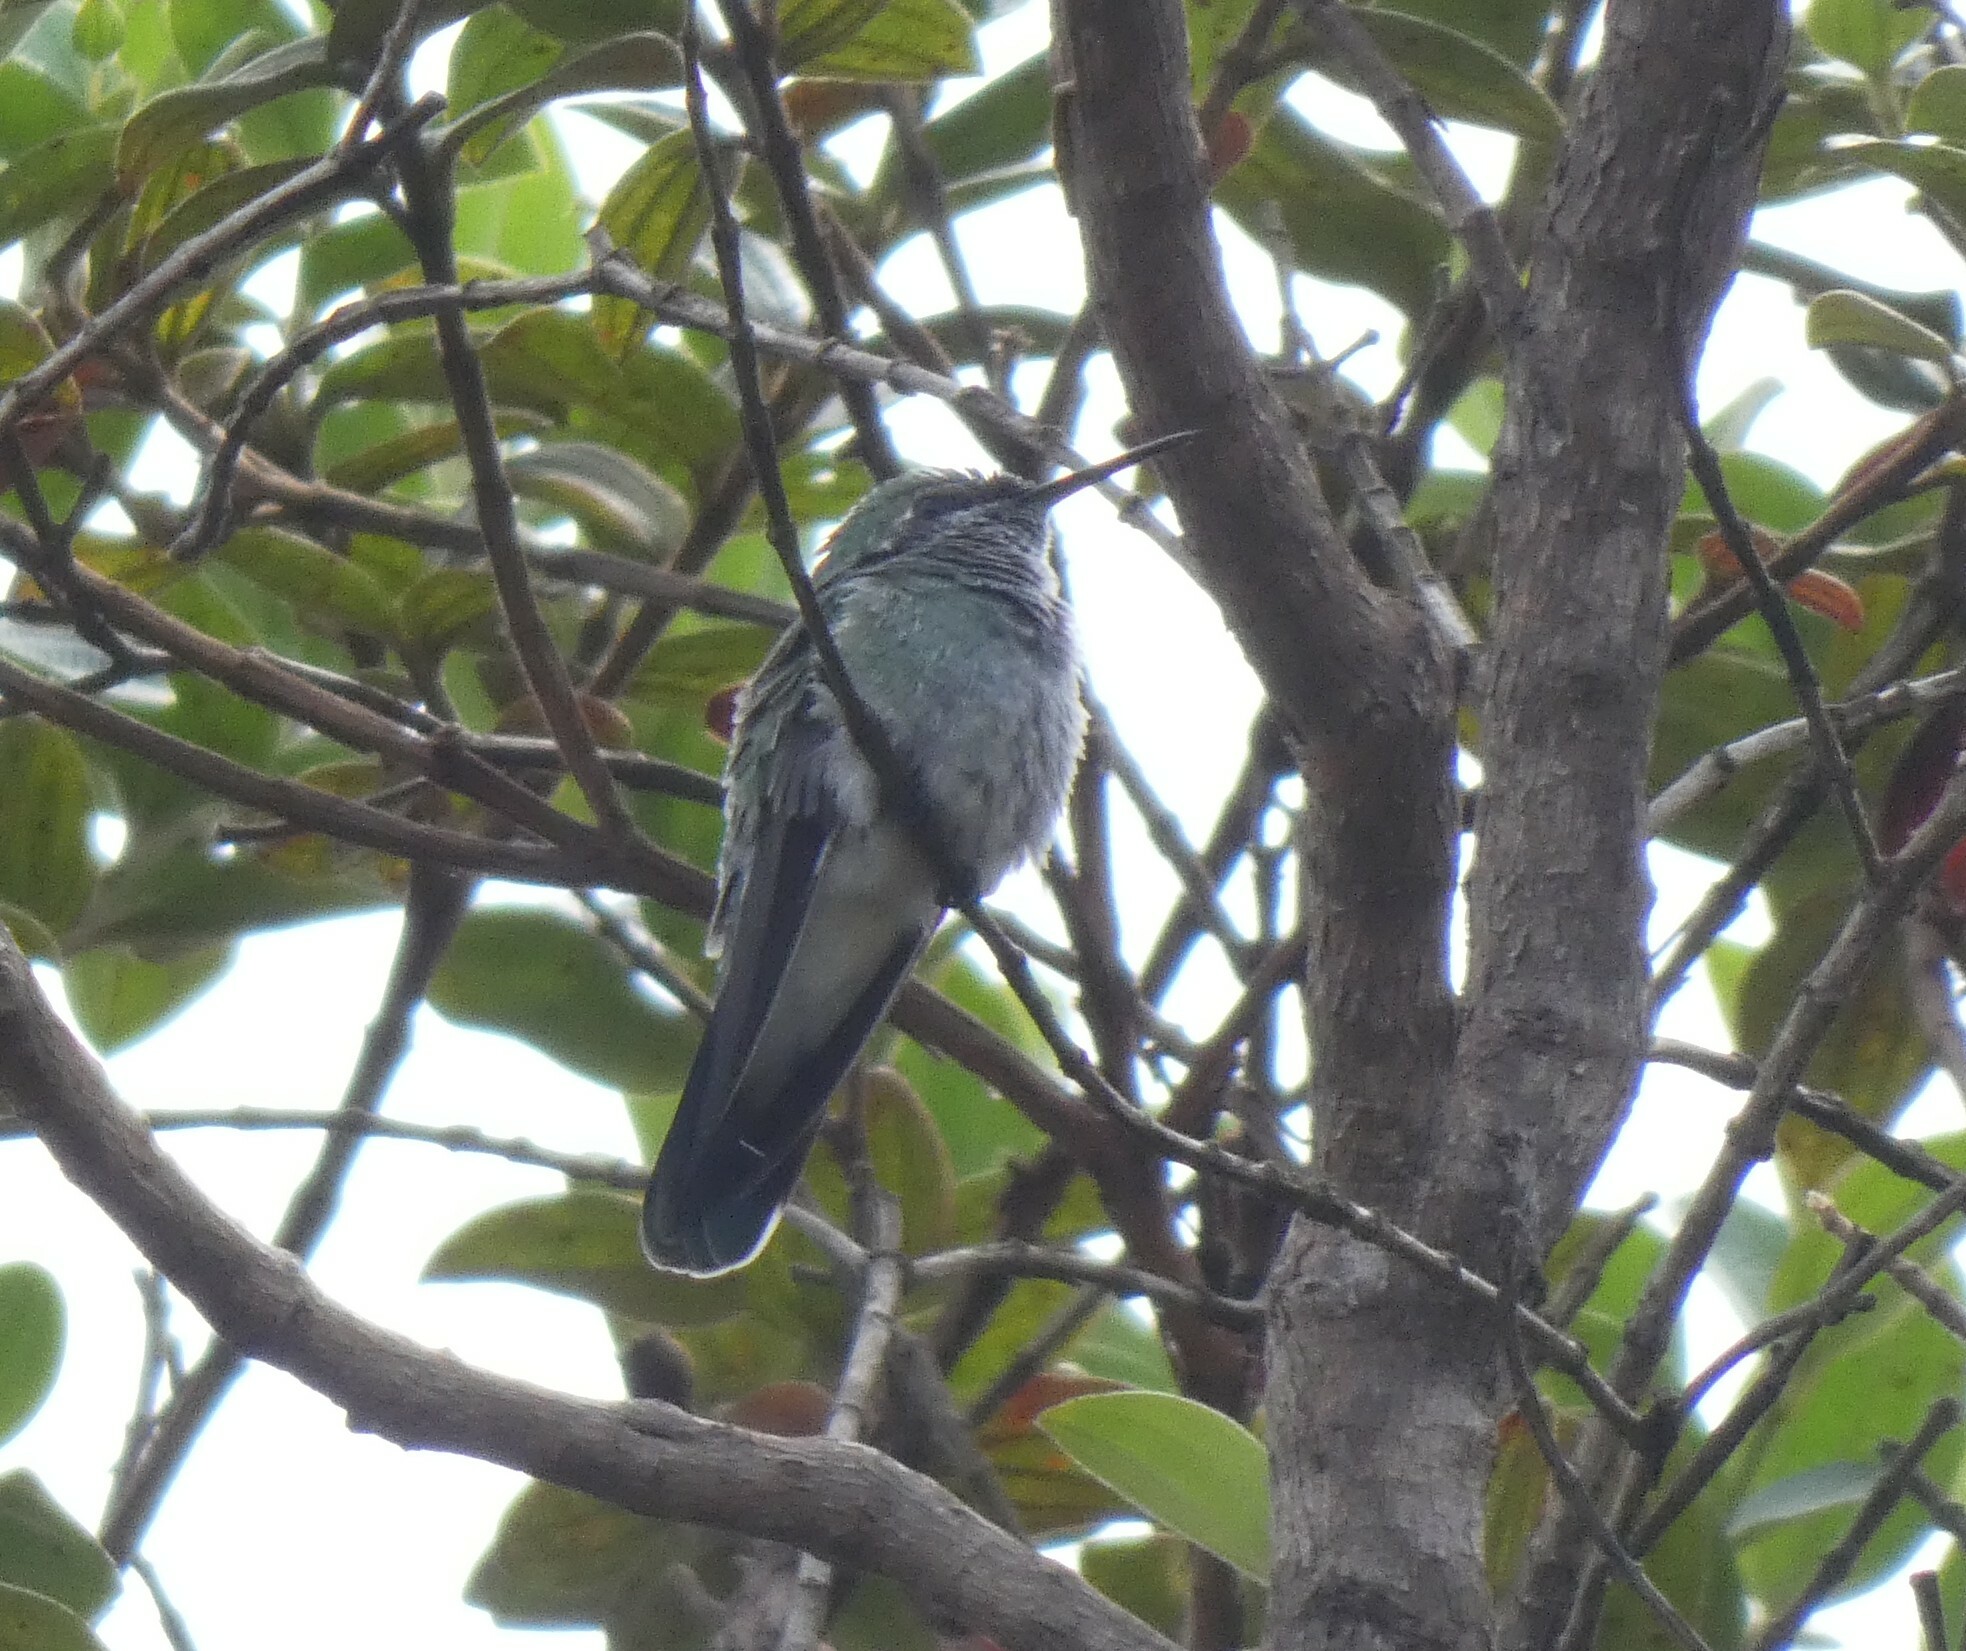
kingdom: Animalia
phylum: Chordata
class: Aves
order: Apodiformes
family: Trochilidae
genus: Colibri
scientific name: Colibri serrirostris
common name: White-vented violetear
